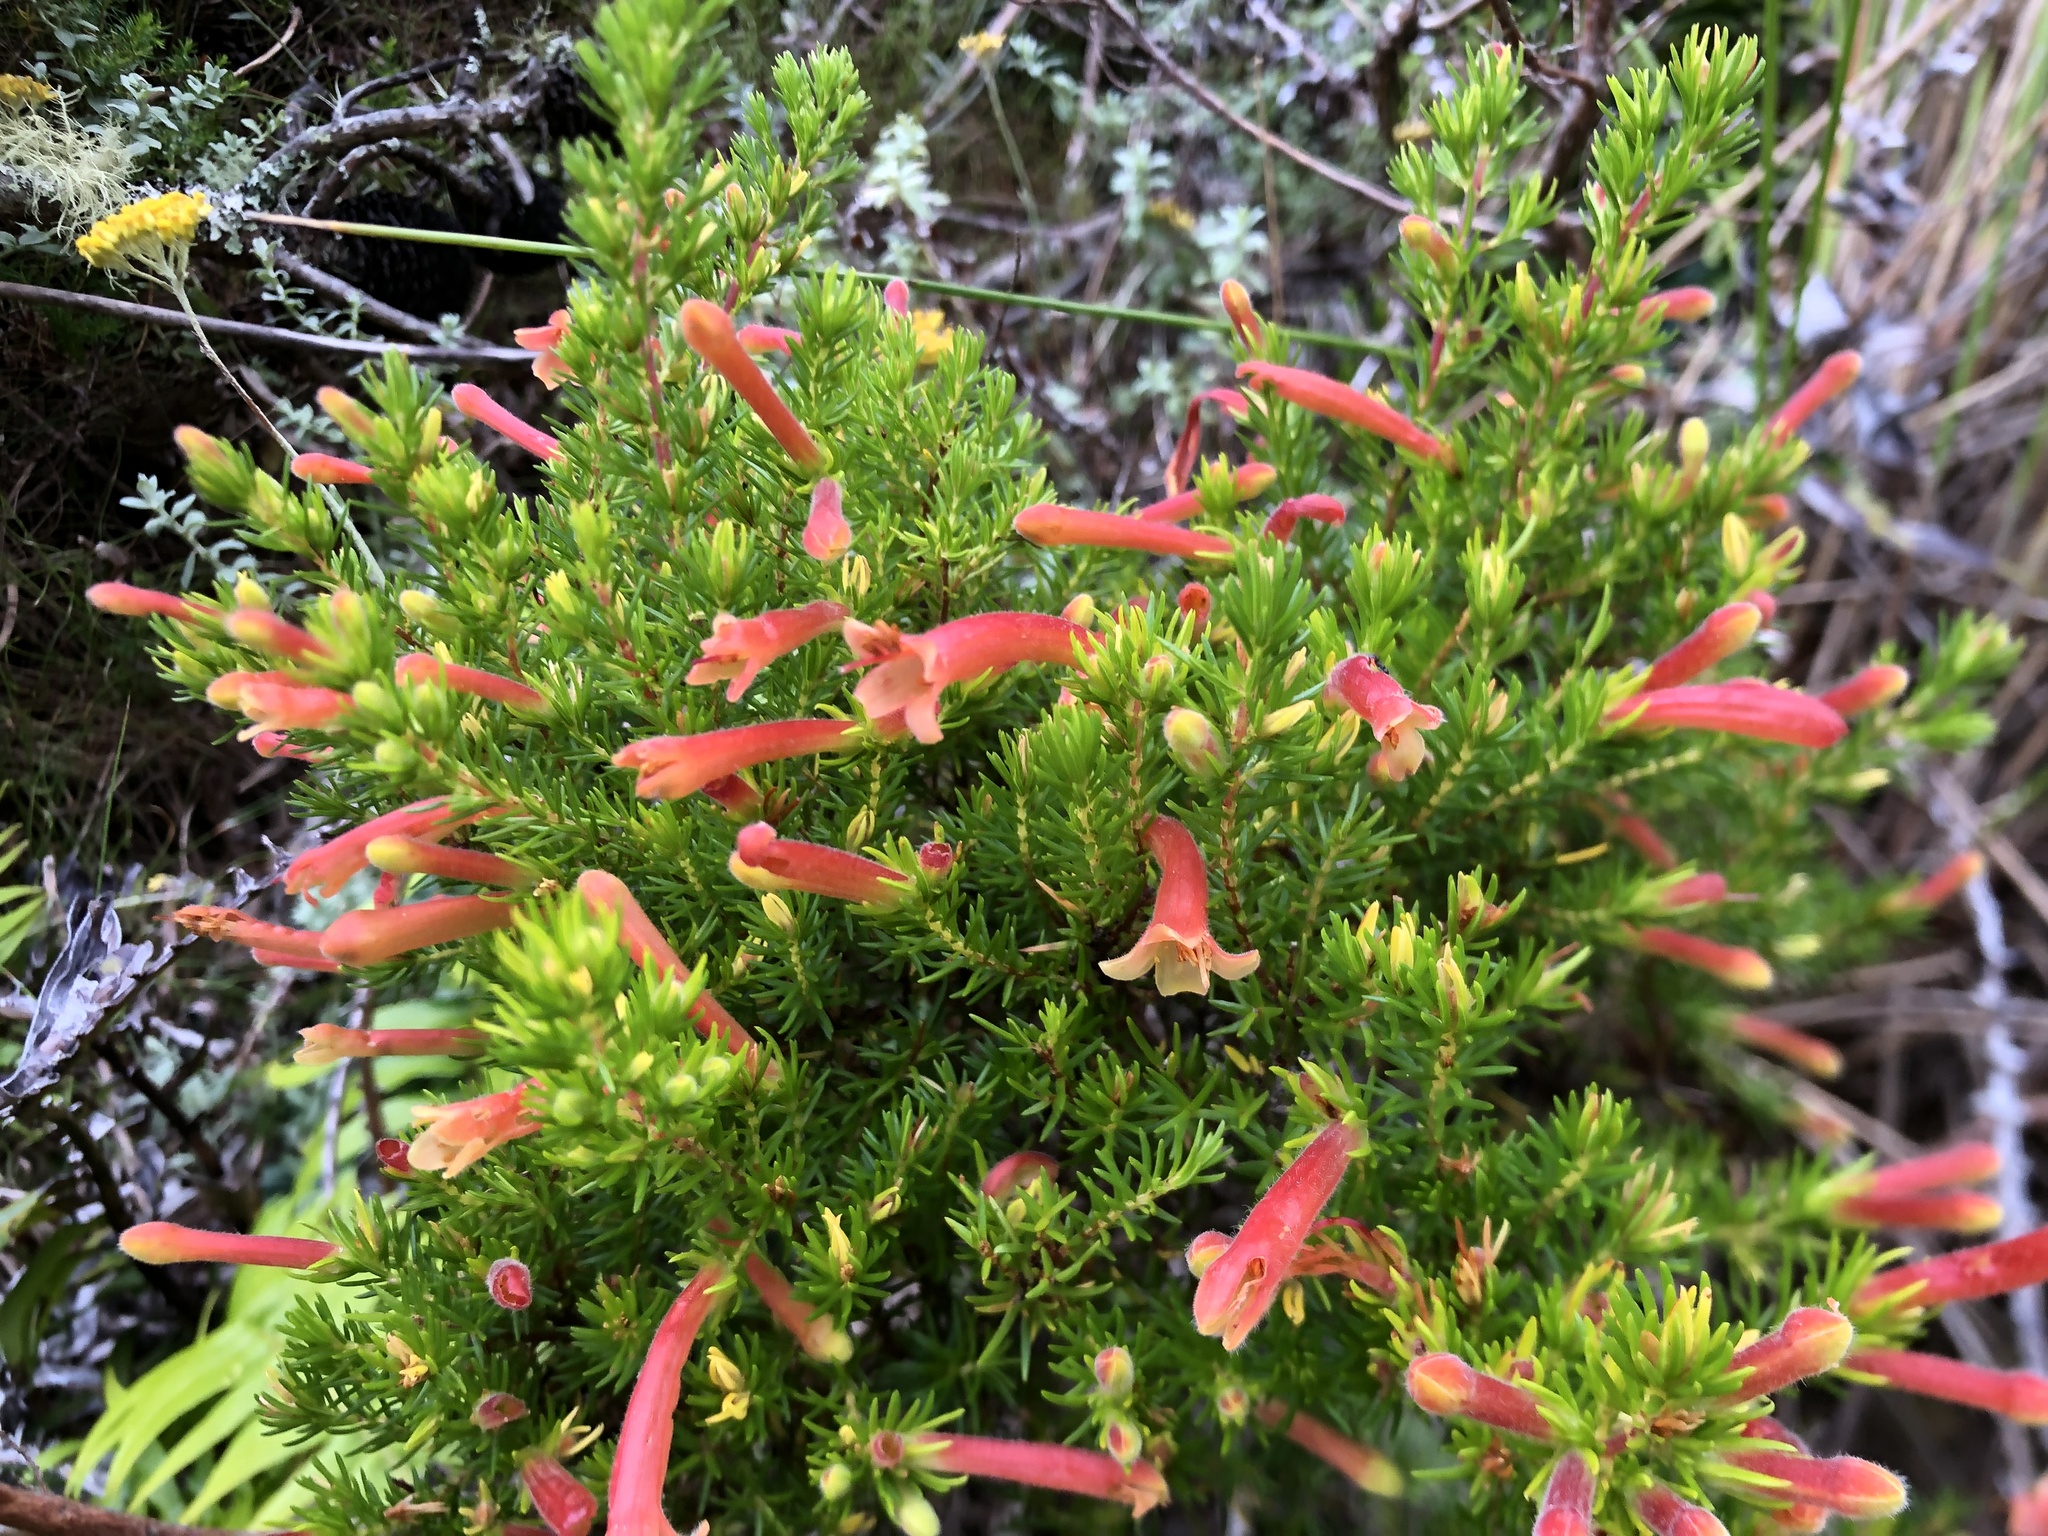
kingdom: Plantae
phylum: Tracheophyta
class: Magnoliopsida
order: Ericales
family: Ericaceae
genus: Erica
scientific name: Erica curviflora
